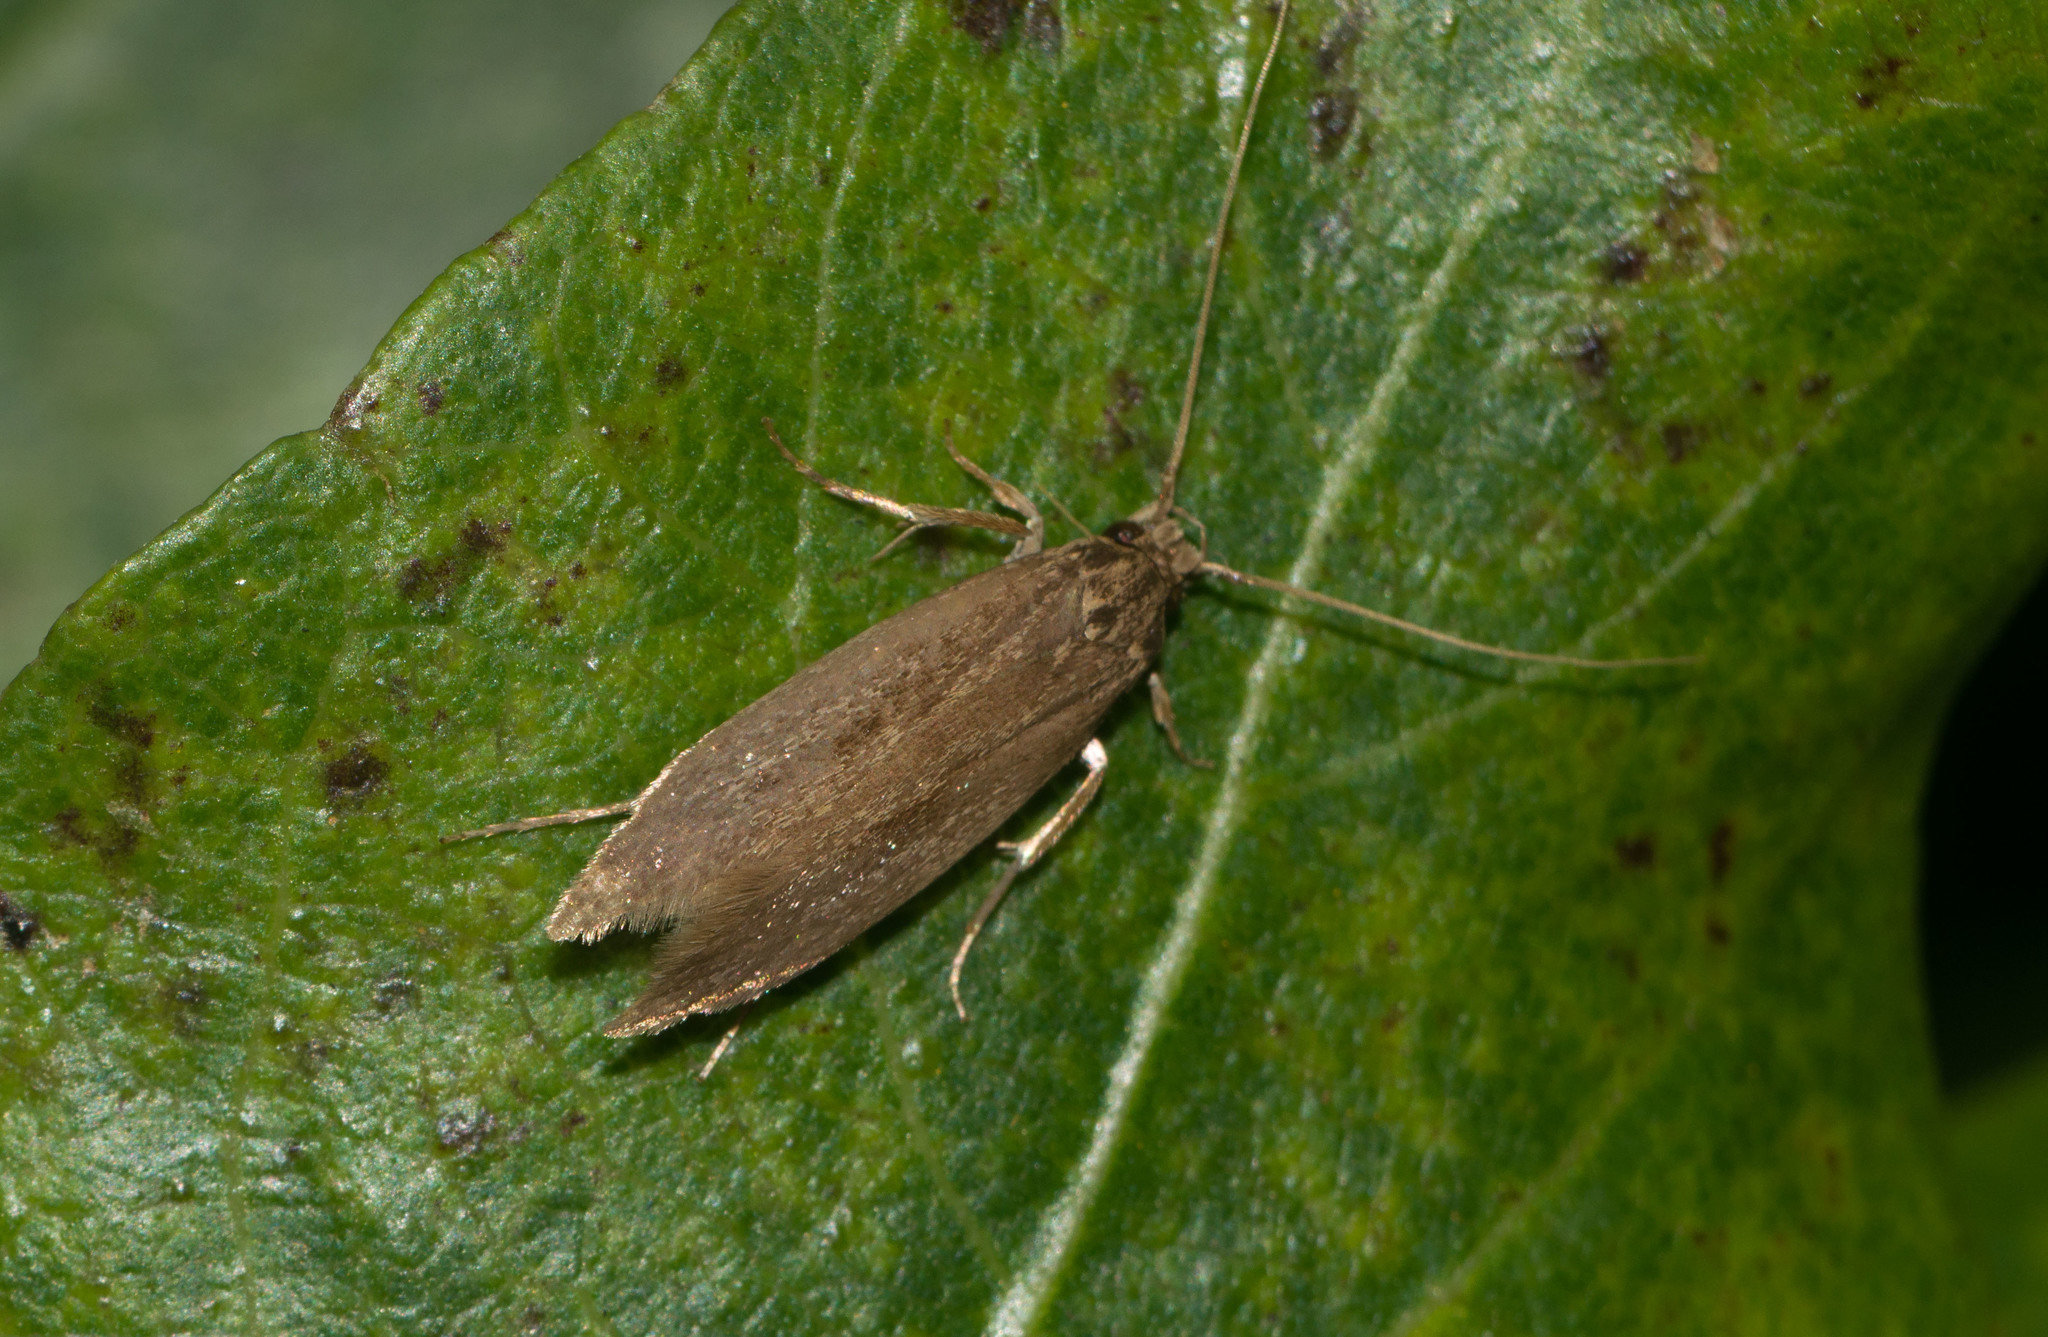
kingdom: Animalia
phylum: Arthropoda
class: Insecta
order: Lepidoptera
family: Tineidae
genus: Opogona
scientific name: Opogona sacchari
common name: Banana bud moth
